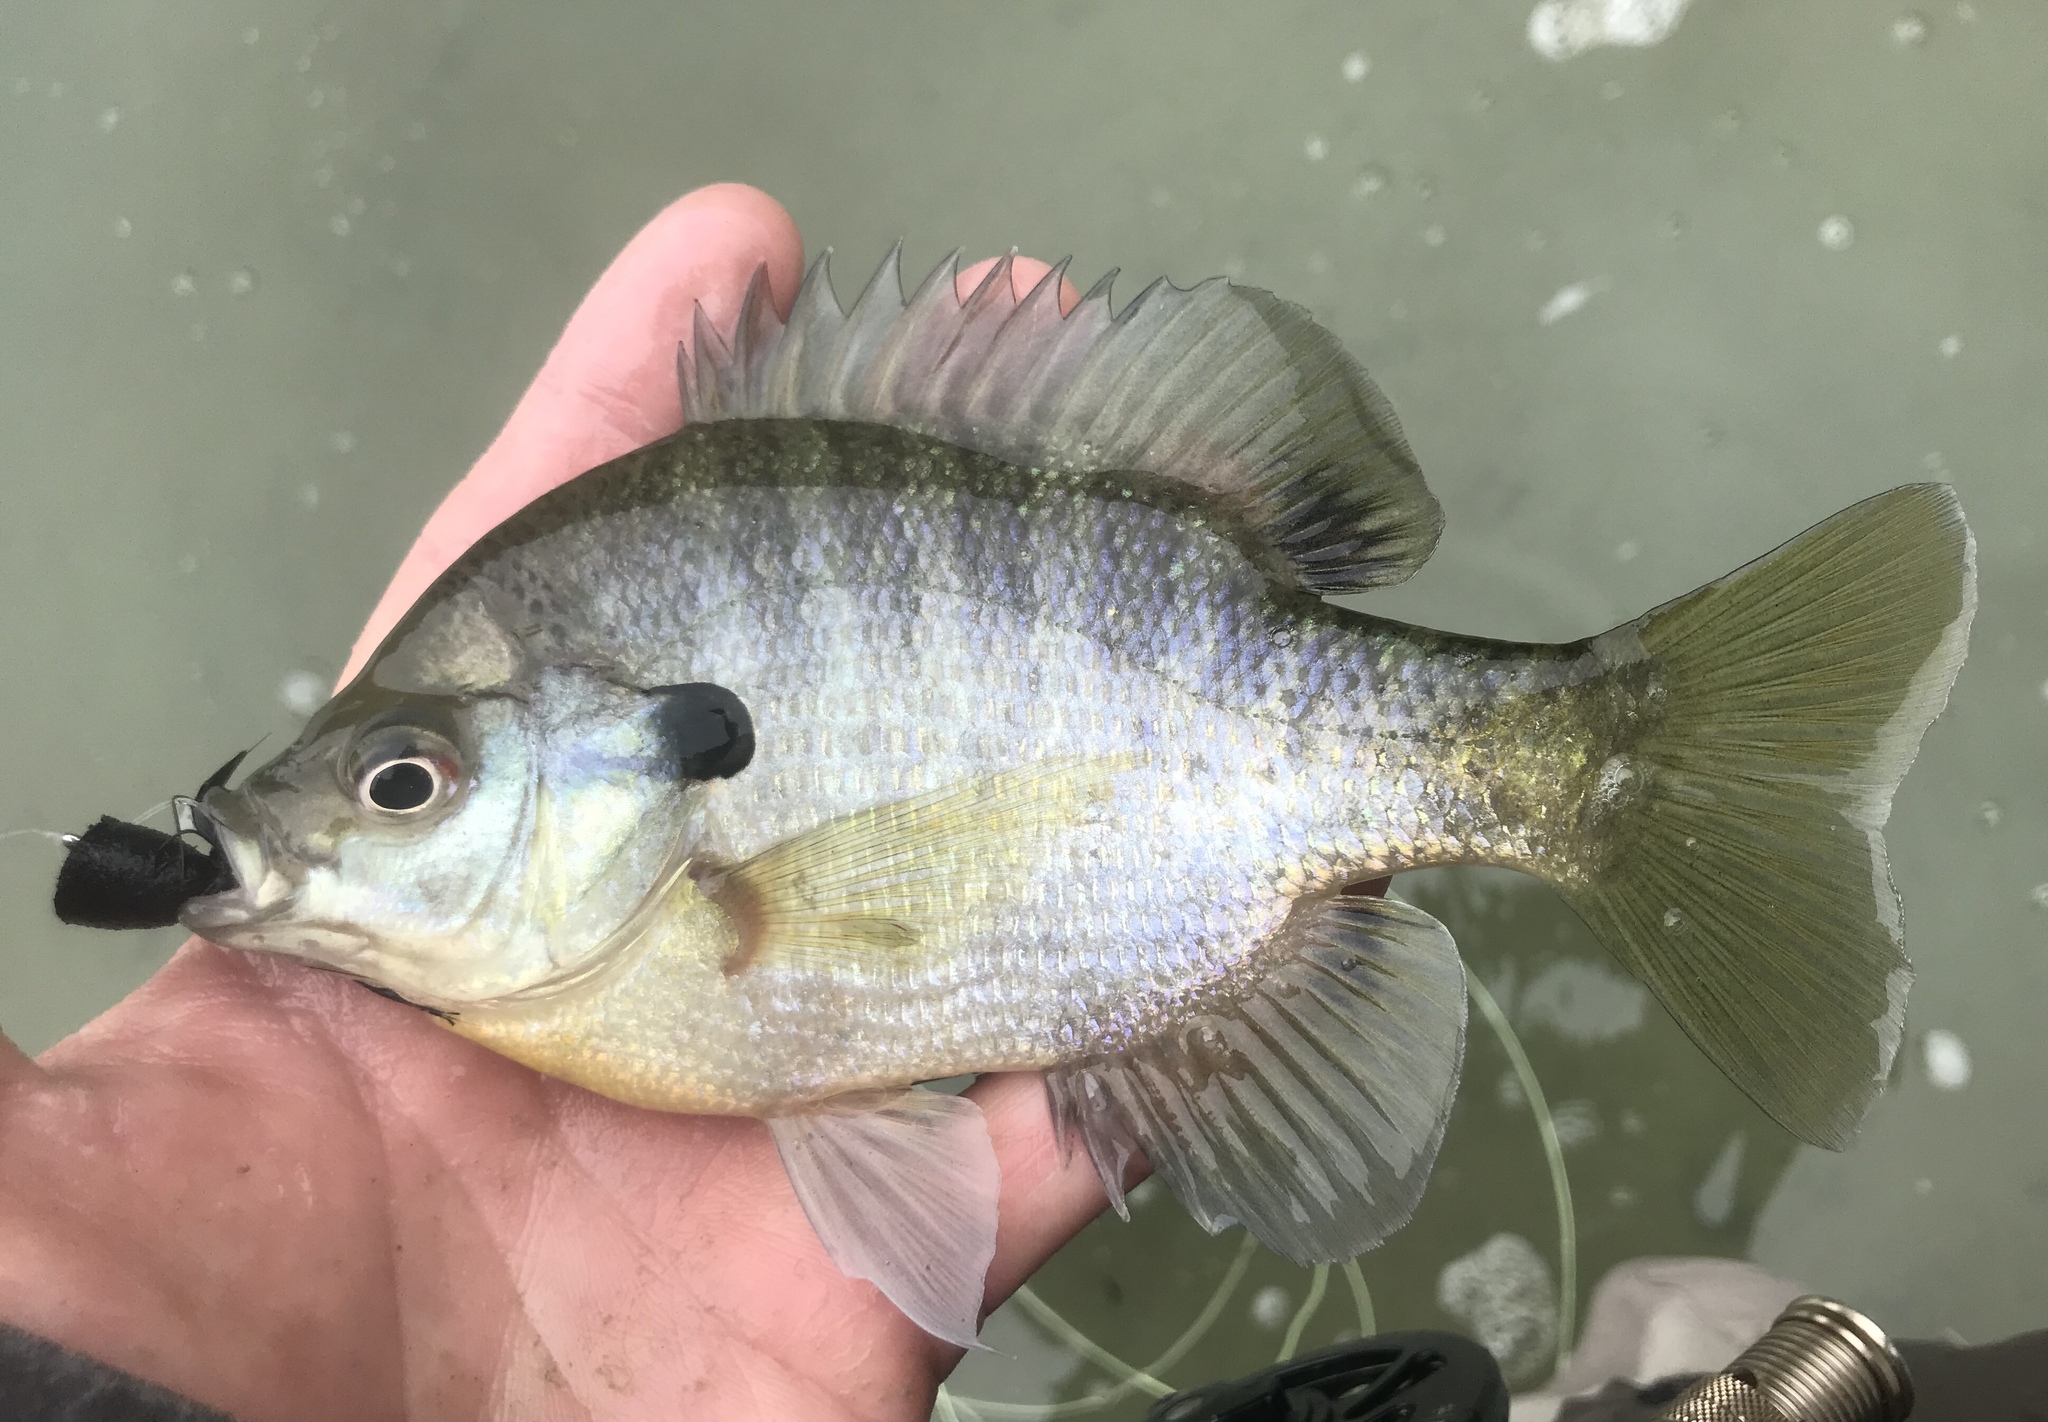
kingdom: Animalia
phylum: Chordata
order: Perciformes
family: Centrarchidae
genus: Lepomis
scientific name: Lepomis macrochirus
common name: Bluegill
